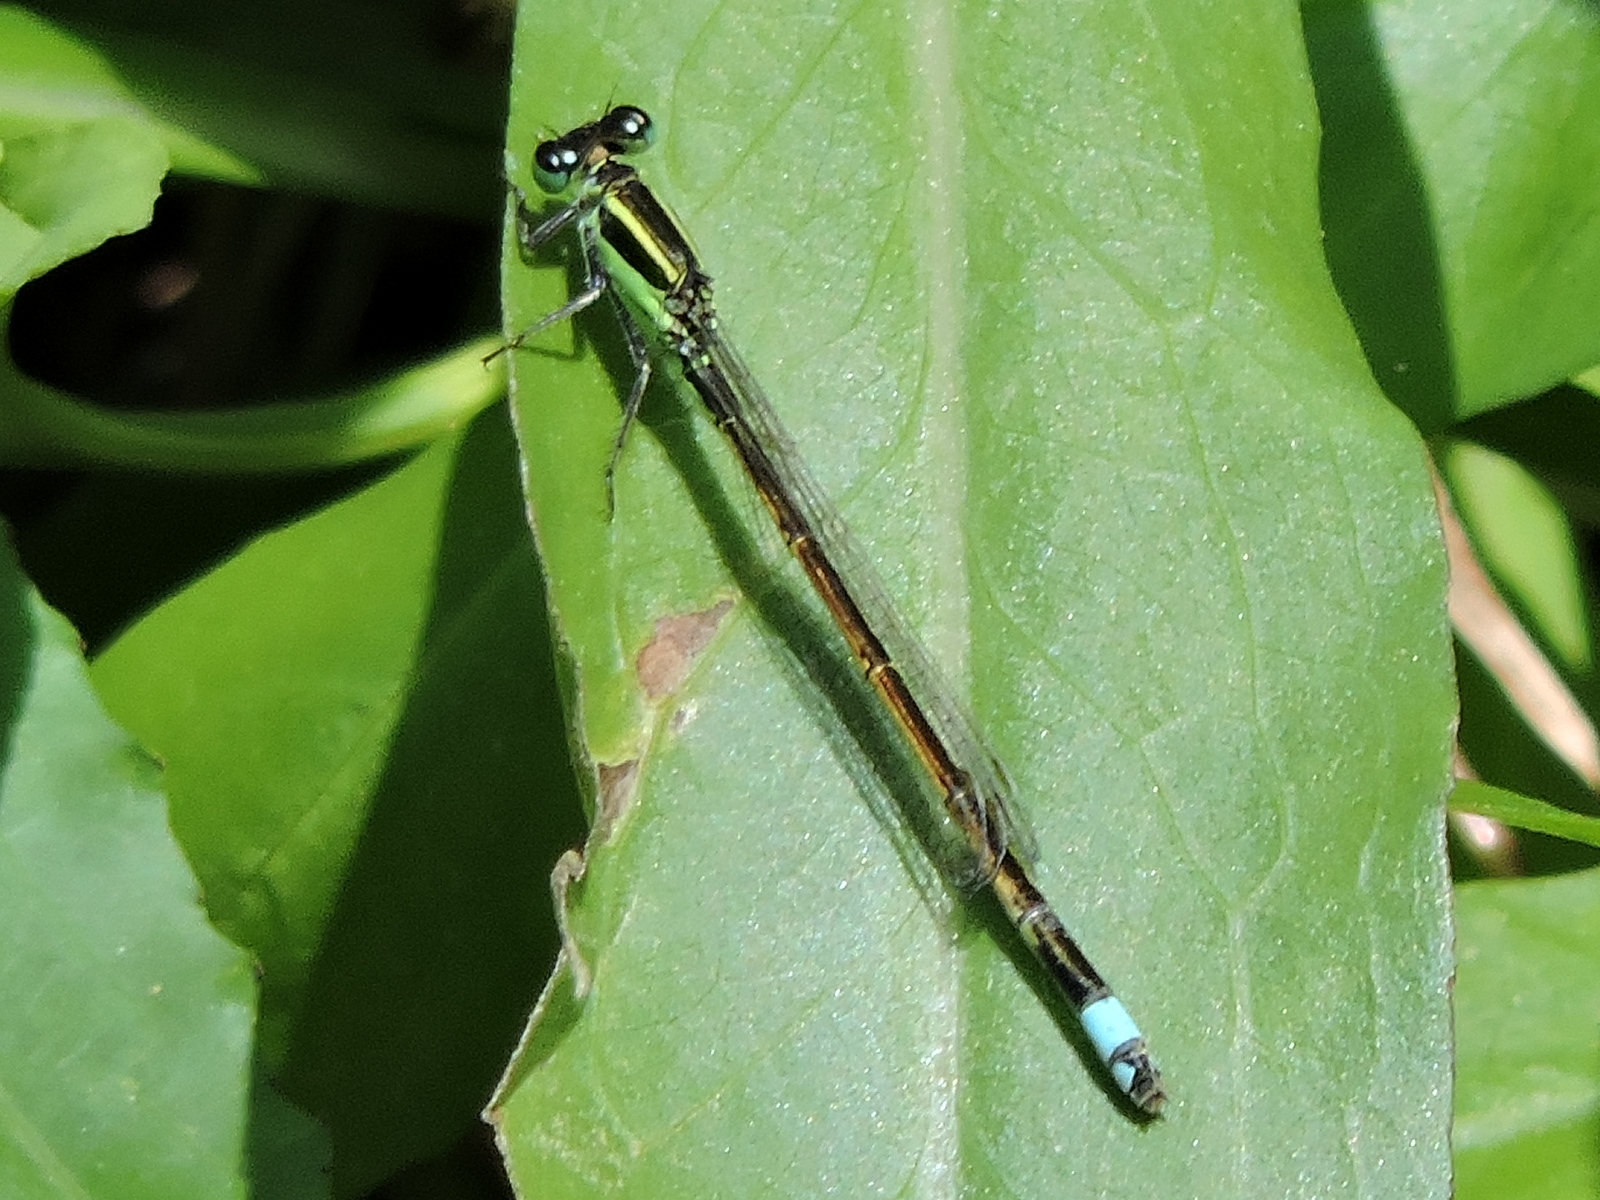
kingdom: Animalia
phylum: Arthropoda
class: Insecta
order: Odonata
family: Coenagrionidae
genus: Ischnura
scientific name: Ischnura ramburii
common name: Rambur's forktail
